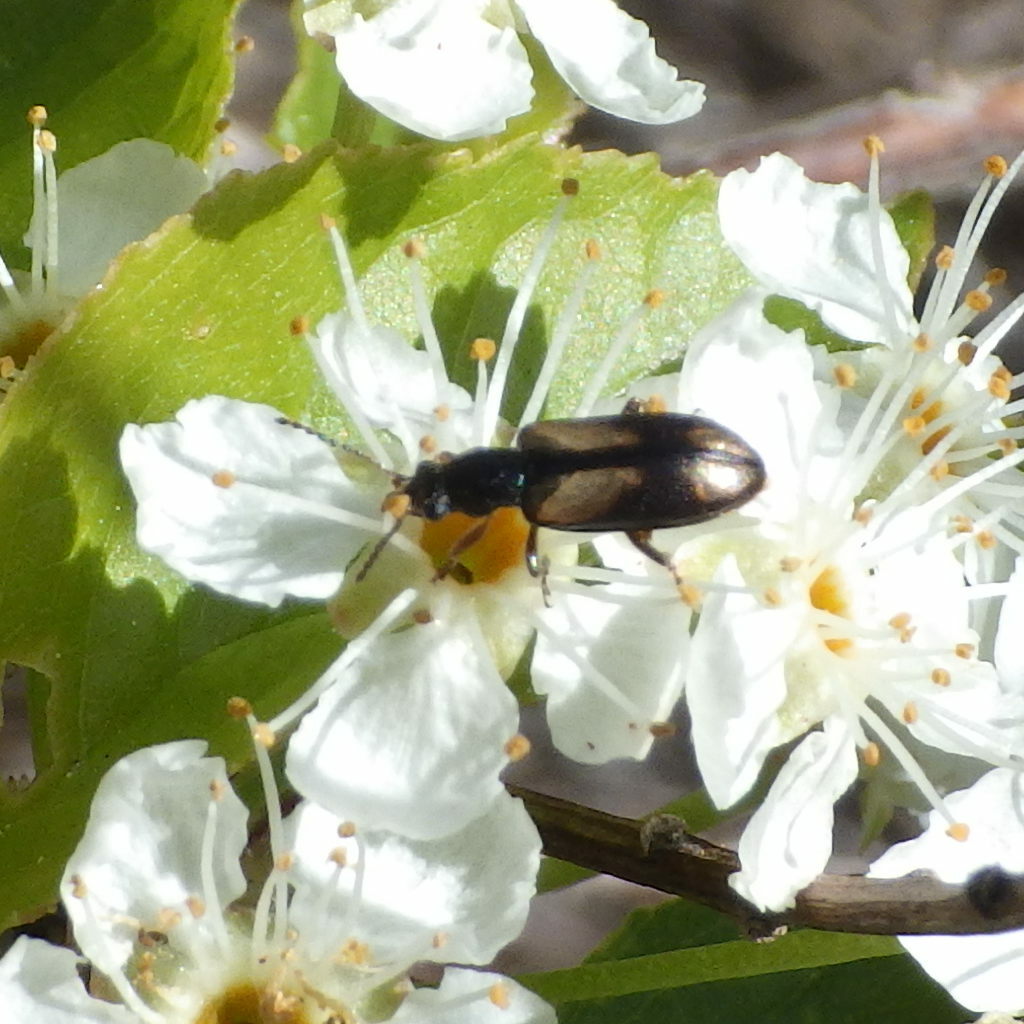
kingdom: Animalia
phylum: Arthropoda
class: Insecta
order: Coleoptera
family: Orsodacnidae
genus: Orsodacne
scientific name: Orsodacne atra
